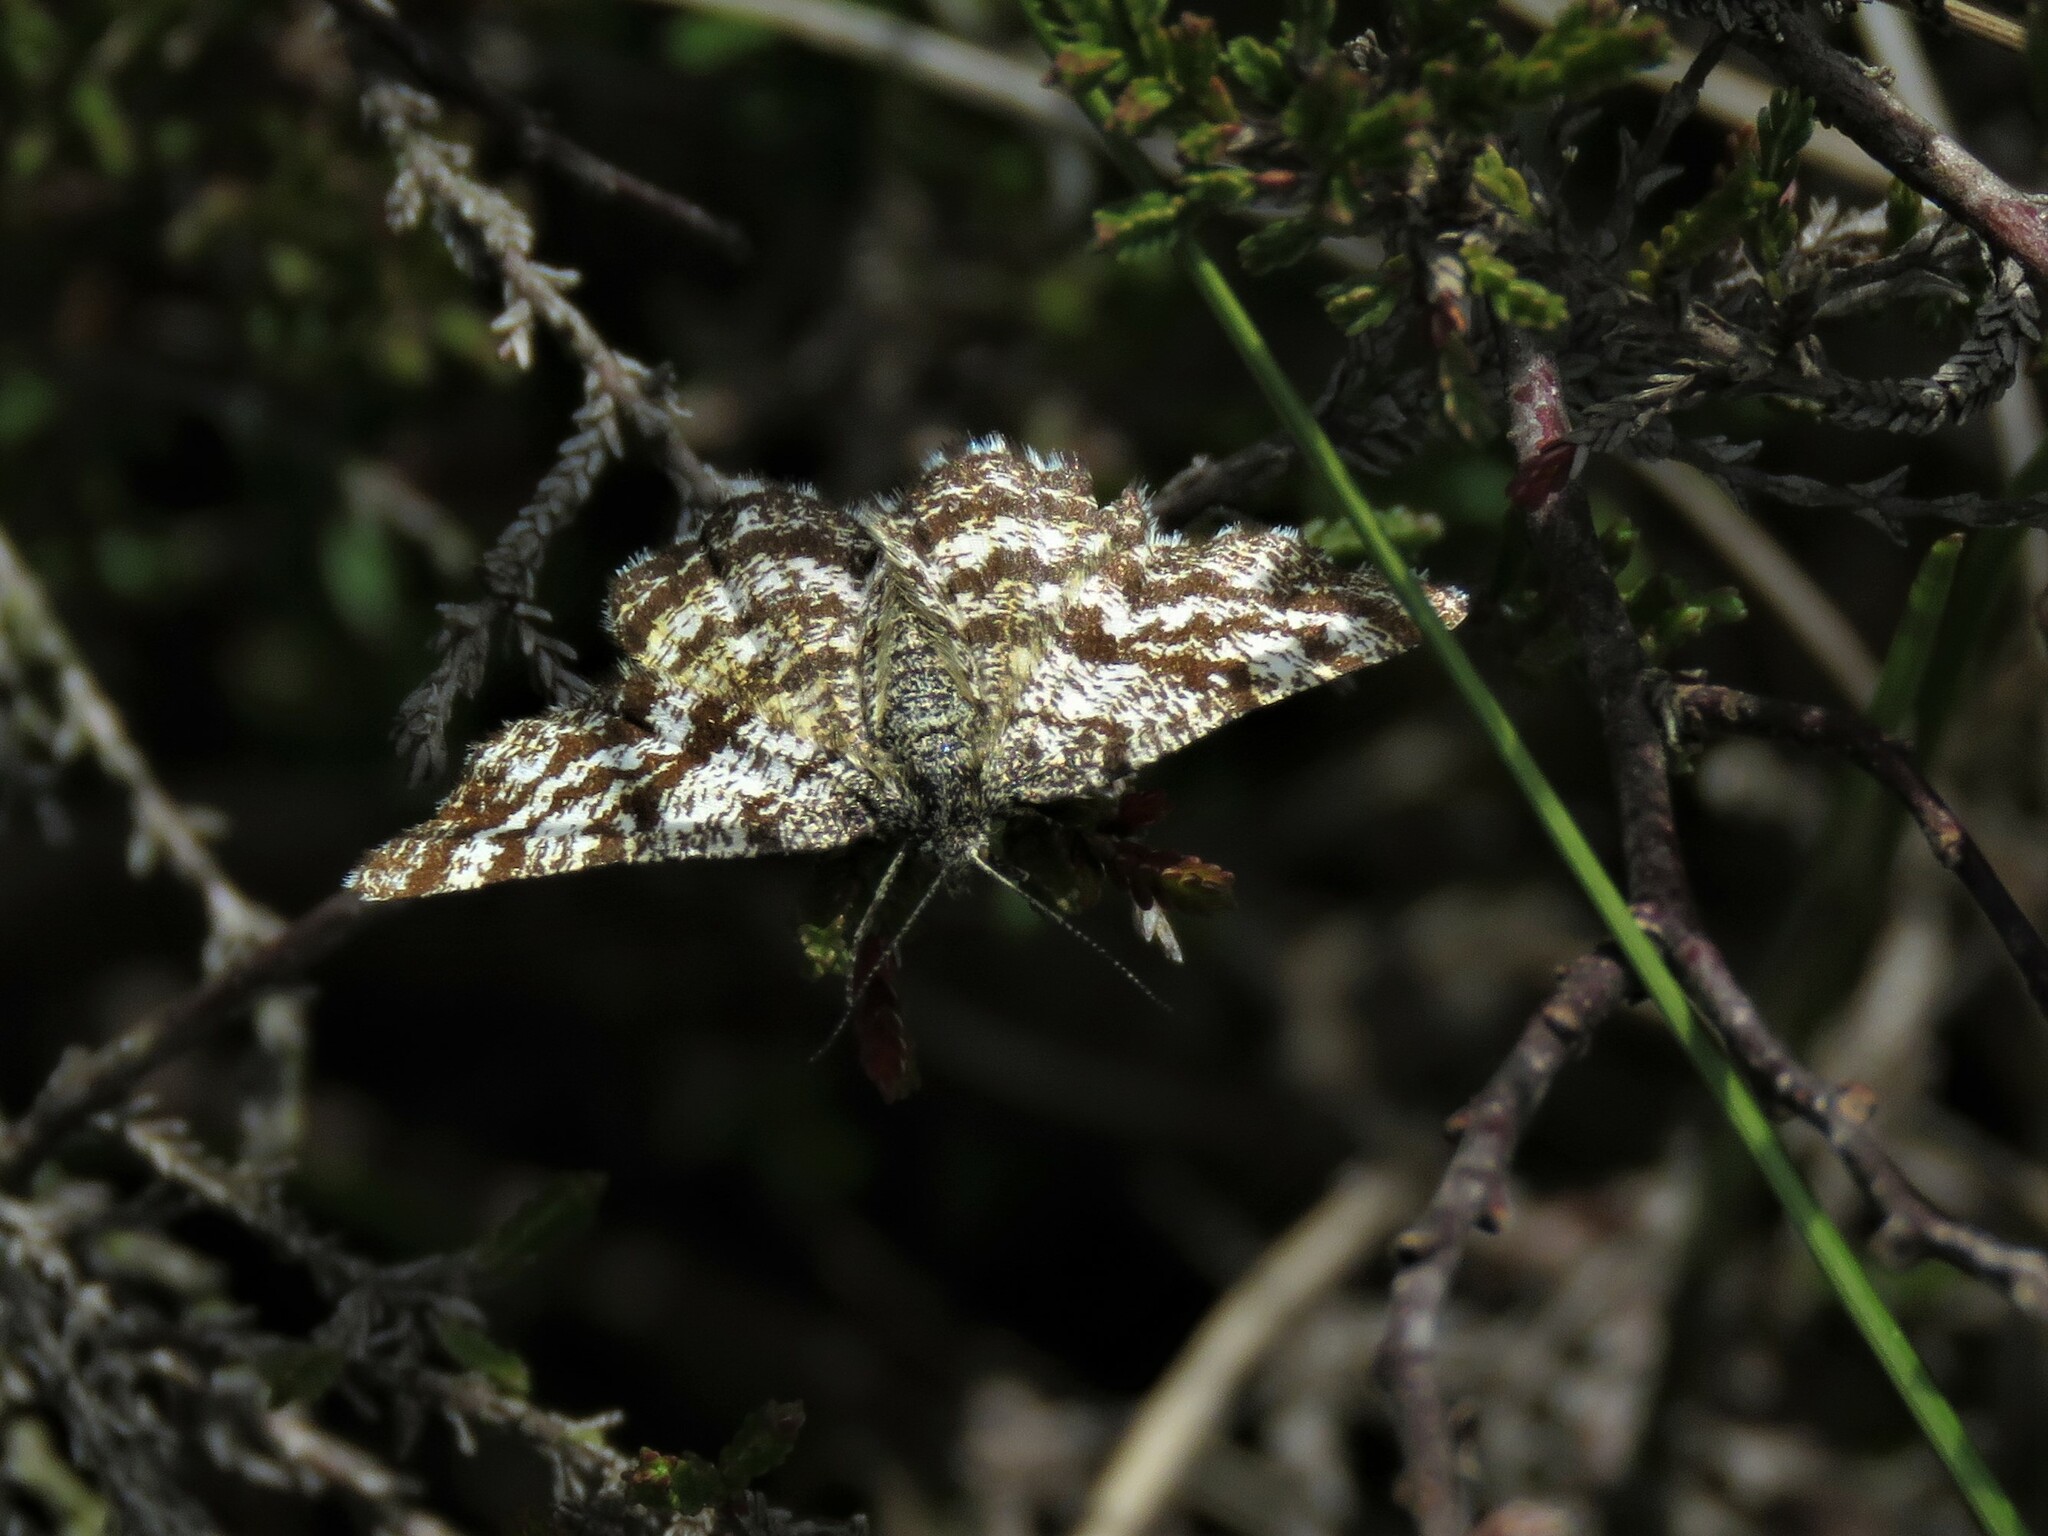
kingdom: Animalia
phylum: Arthropoda
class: Insecta
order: Lepidoptera
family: Geometridae
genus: Ematurga
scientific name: Ematurga atomaria
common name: Common heath
